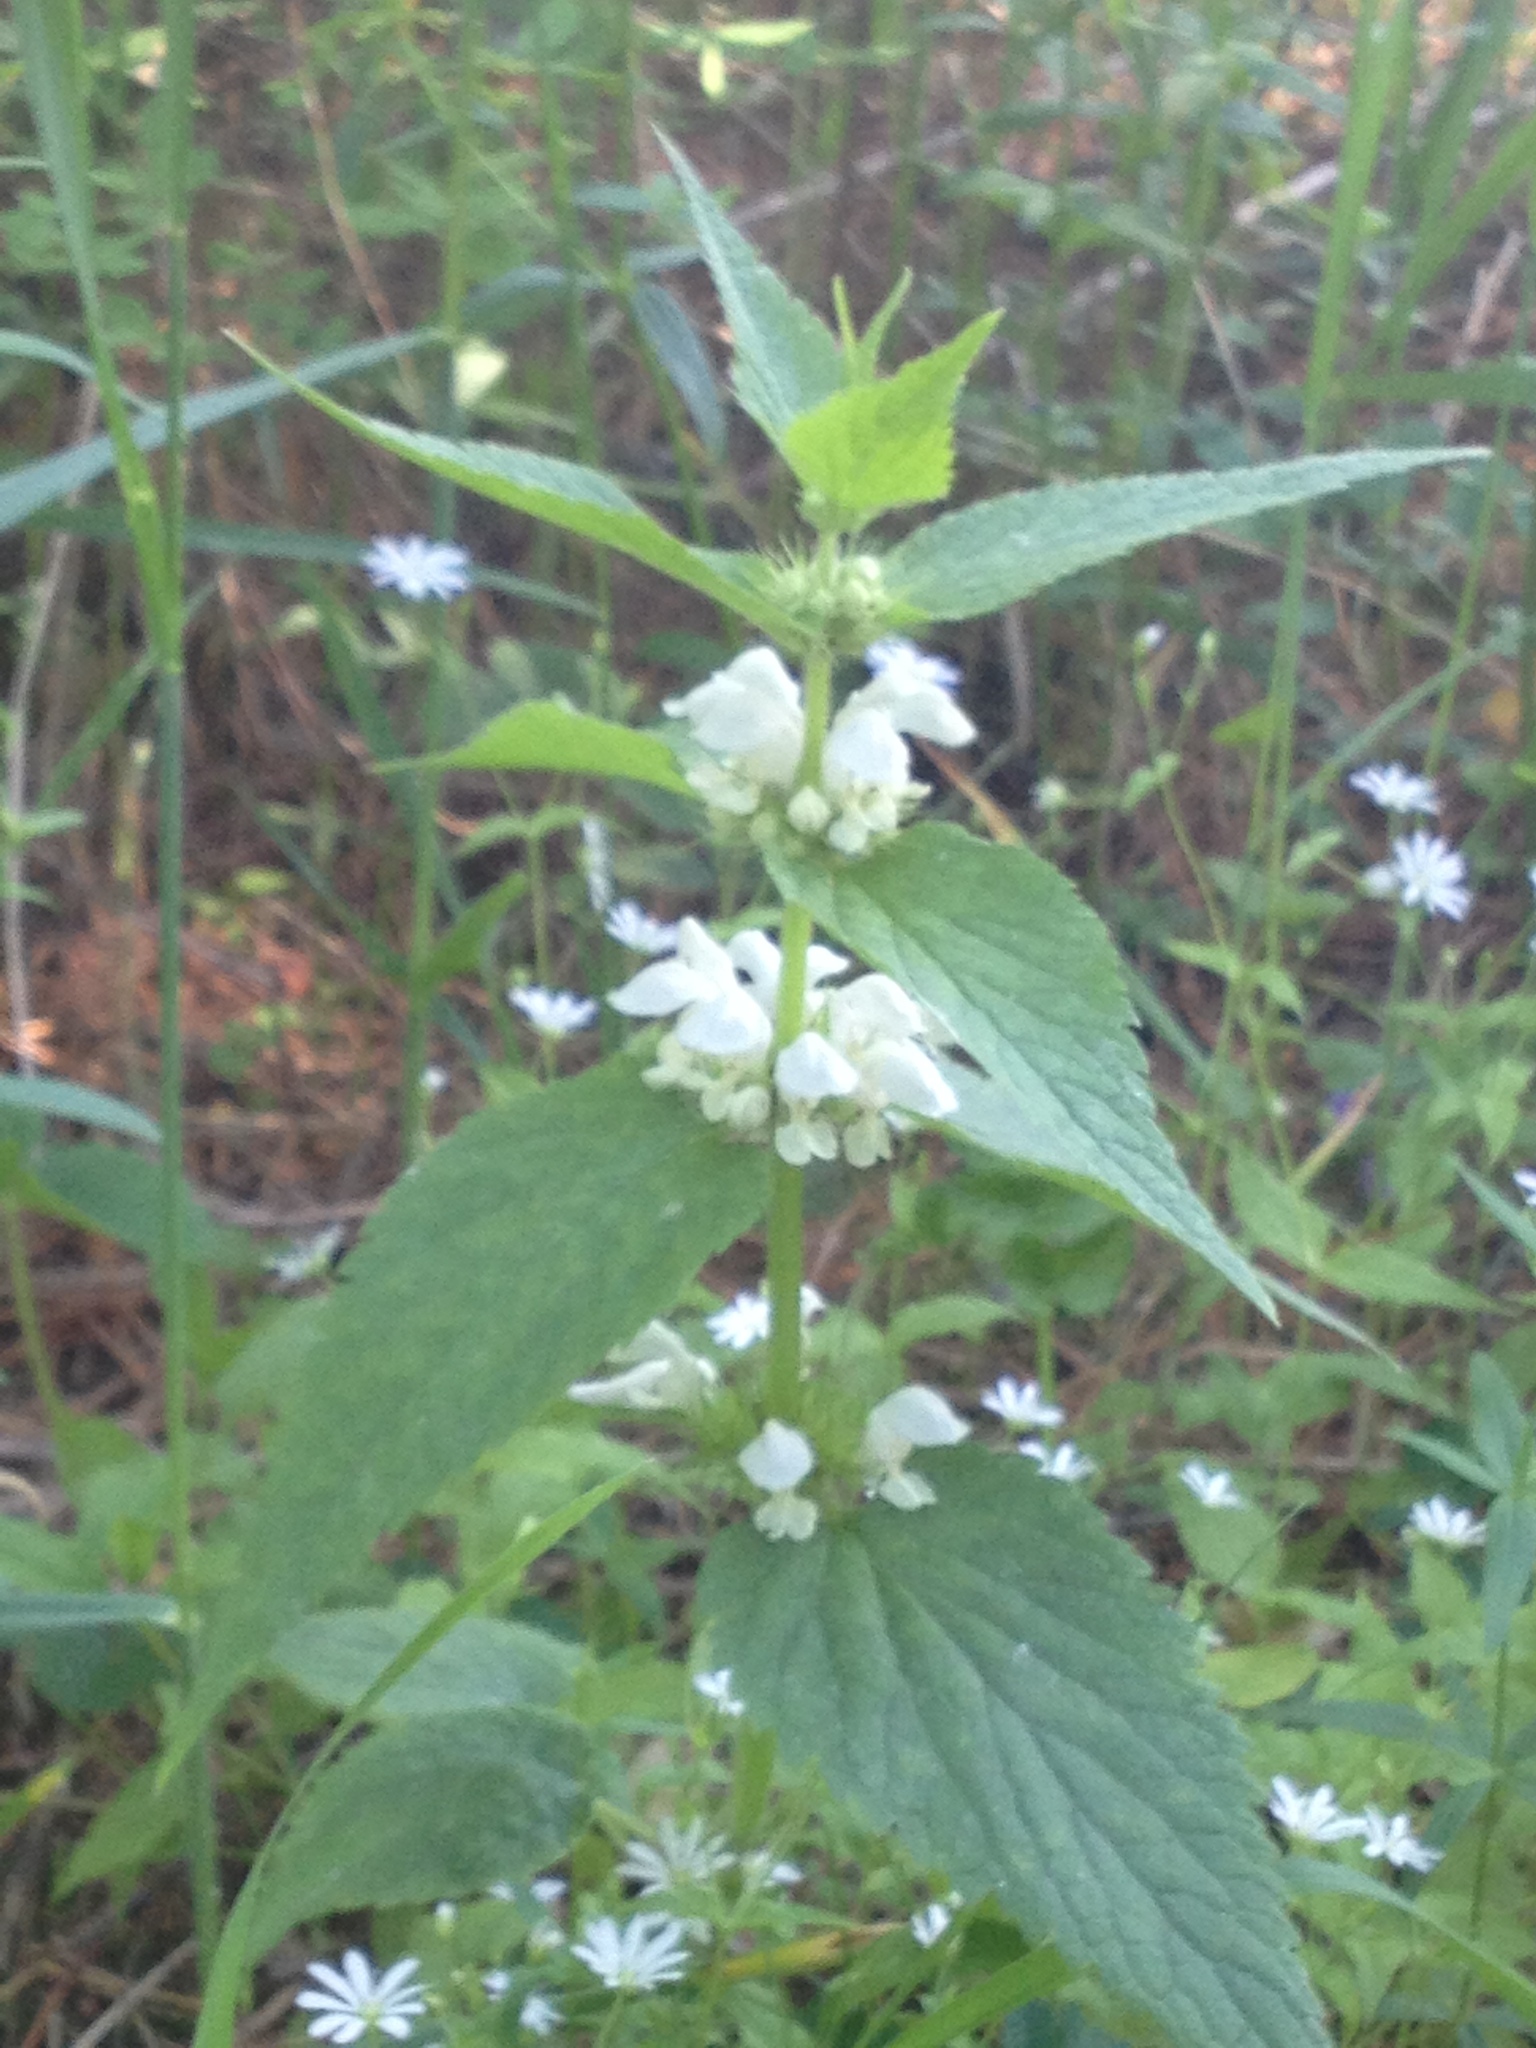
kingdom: Plantae
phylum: Tracheophyta
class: Magnoliopsida
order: Lamiales
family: Lamiaceae
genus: Lamium
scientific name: Lamium album
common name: White dead-nettle
